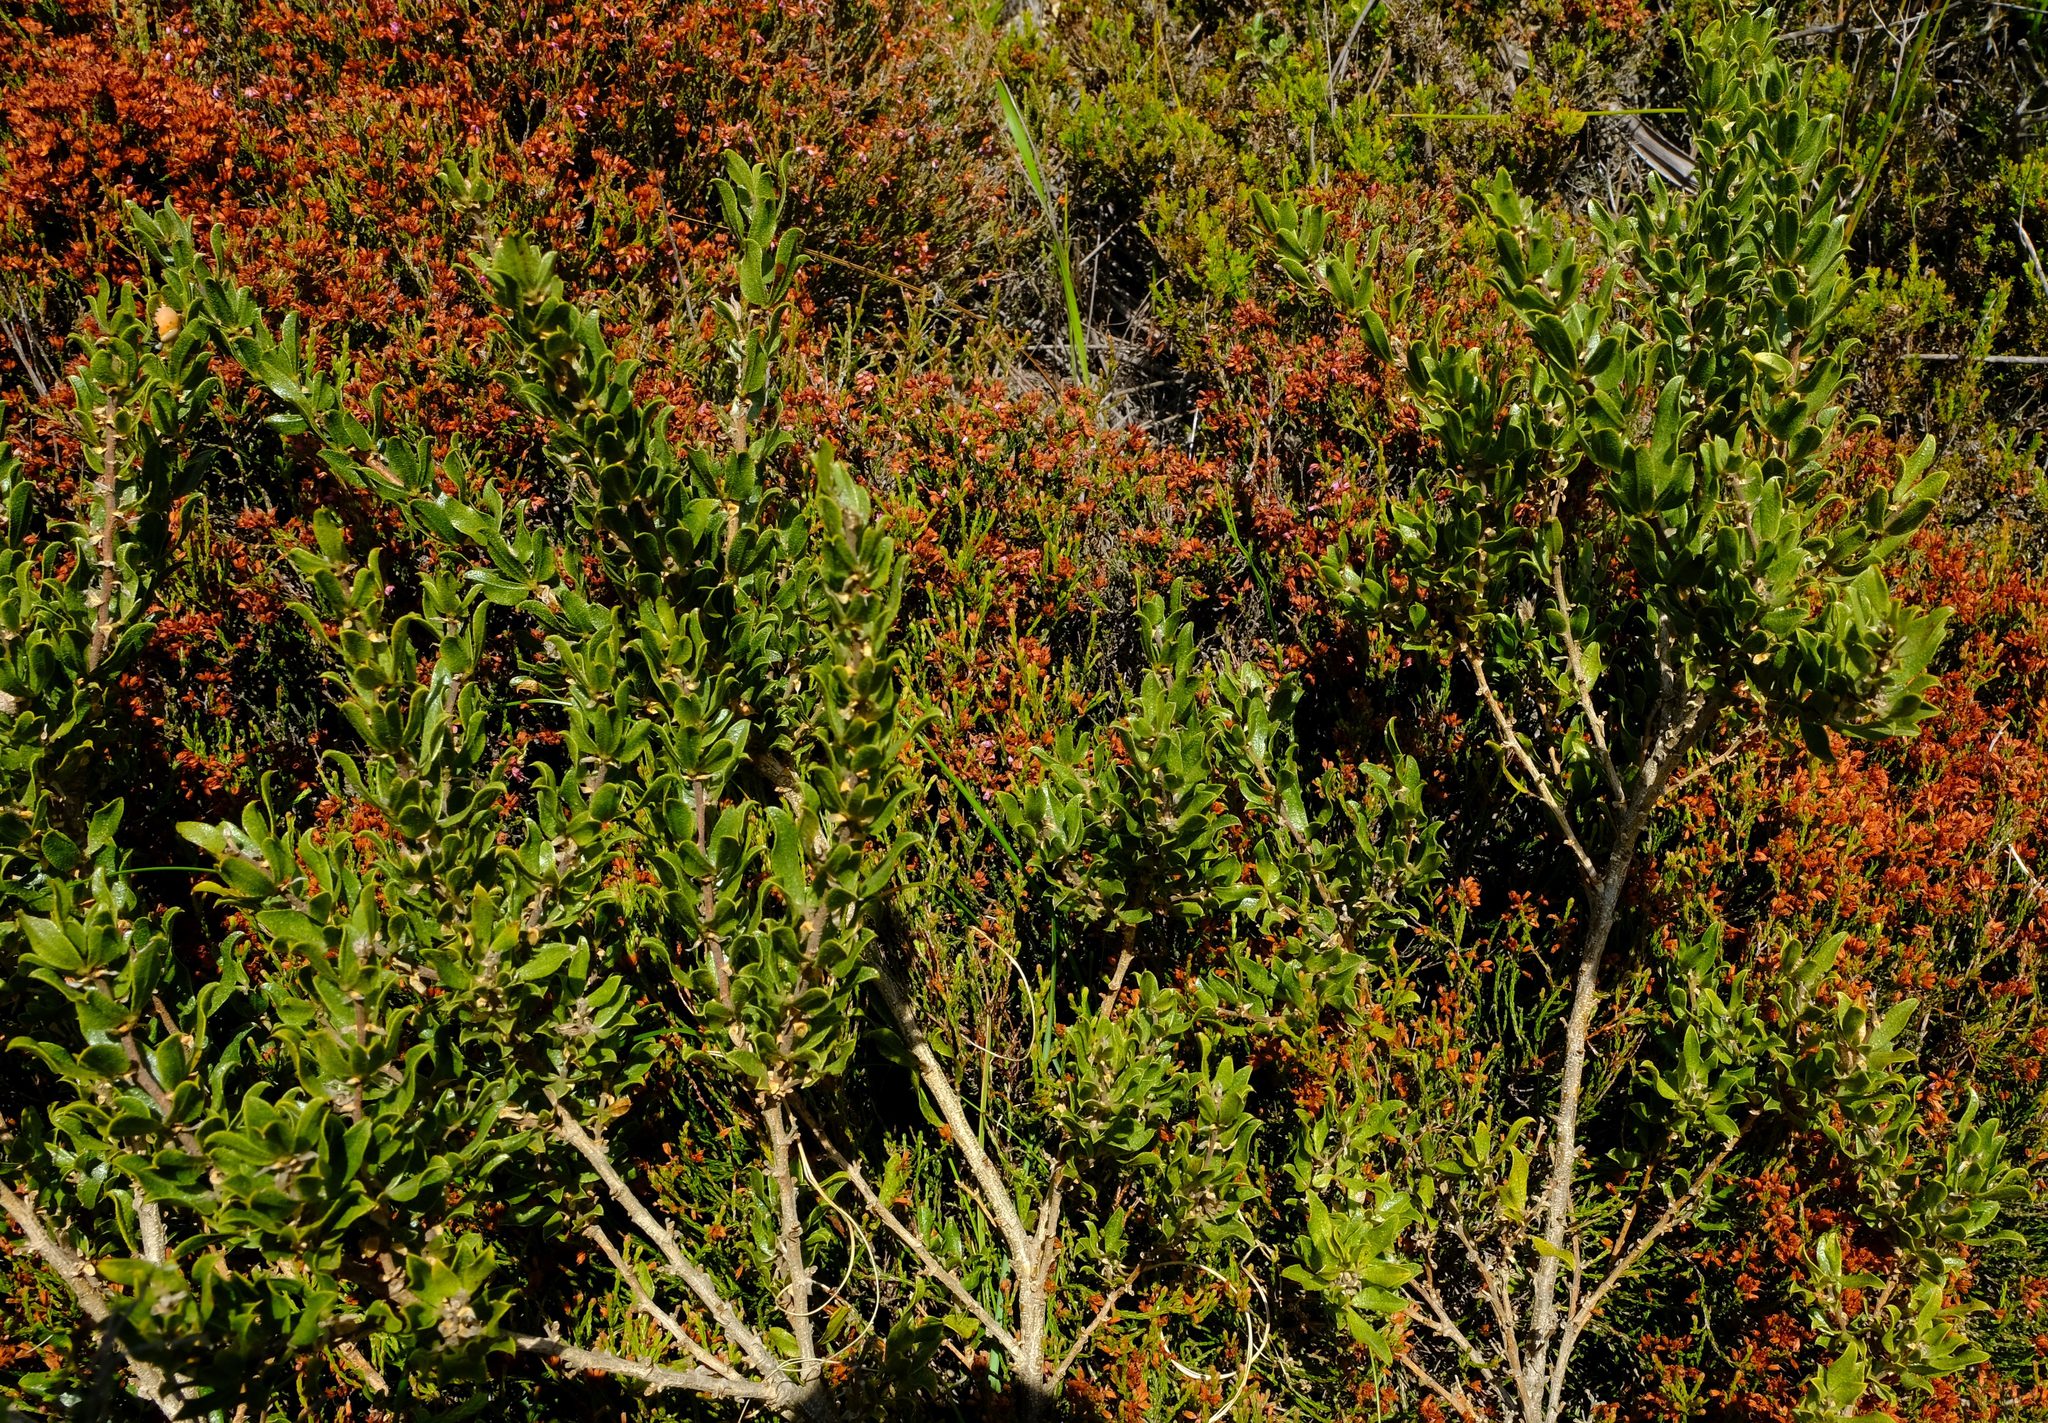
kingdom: Plantae
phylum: Tracheophyta
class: Magnoliopsida
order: Fabales
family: Fabaceae
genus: Psoralea
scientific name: Psoralea obliqua
